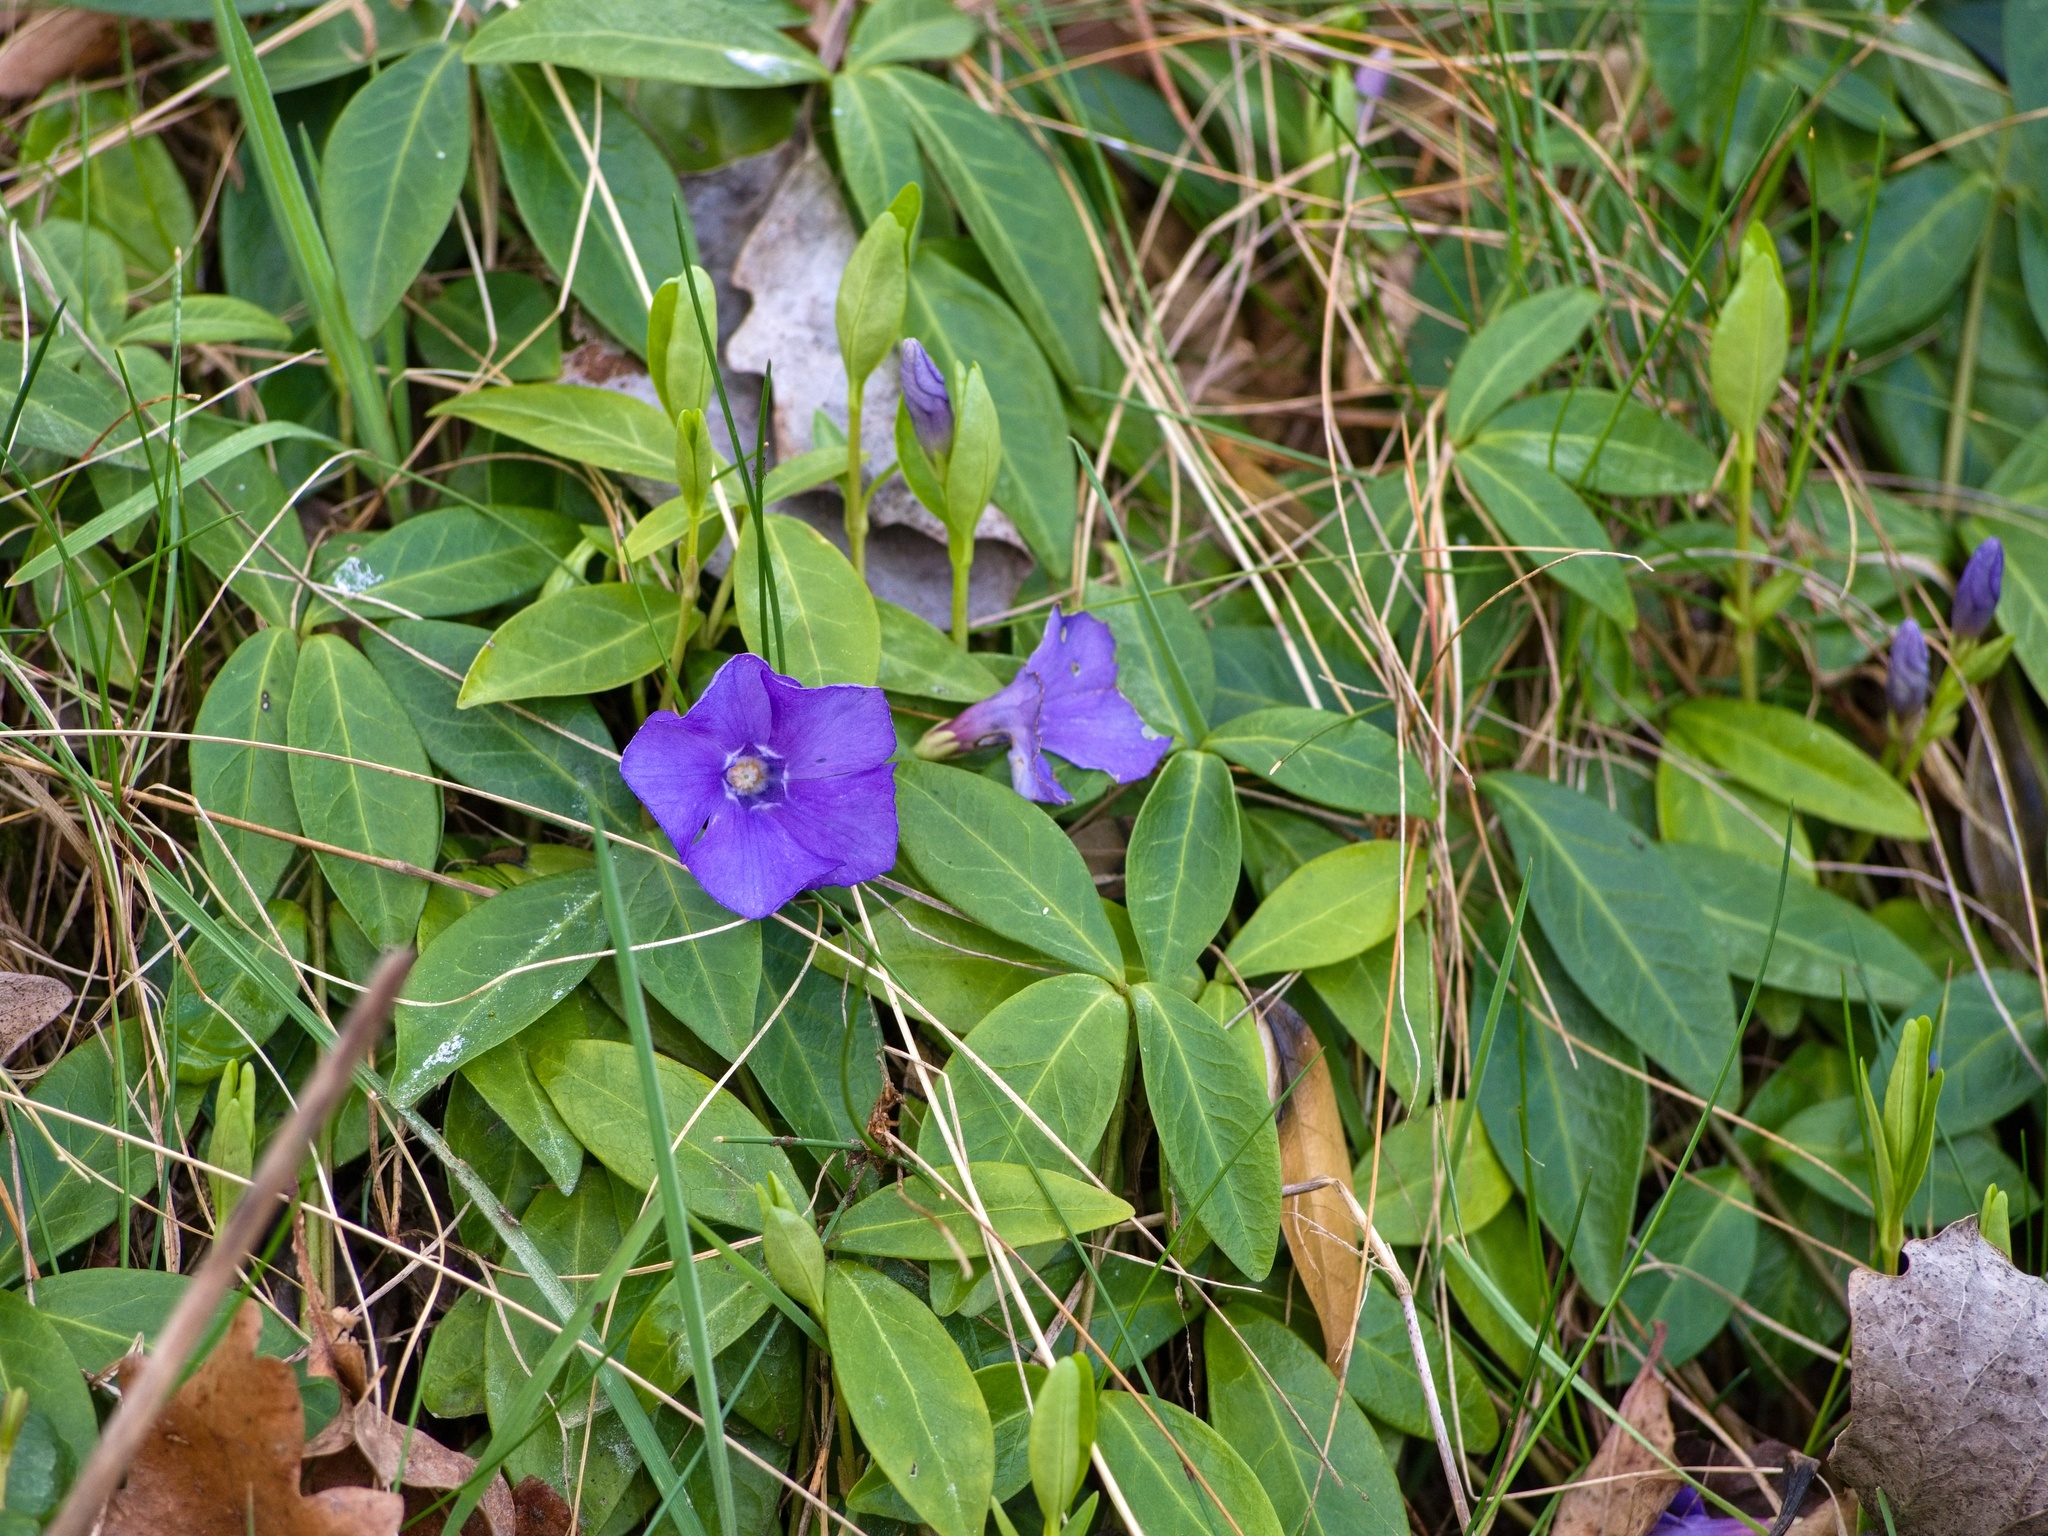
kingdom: Plantae
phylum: Tracheophyta
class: Magnoliopsida
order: Gentianales
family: Apocynaceae
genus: Vinca
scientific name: Vinca minor
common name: Lesser periwinkle
